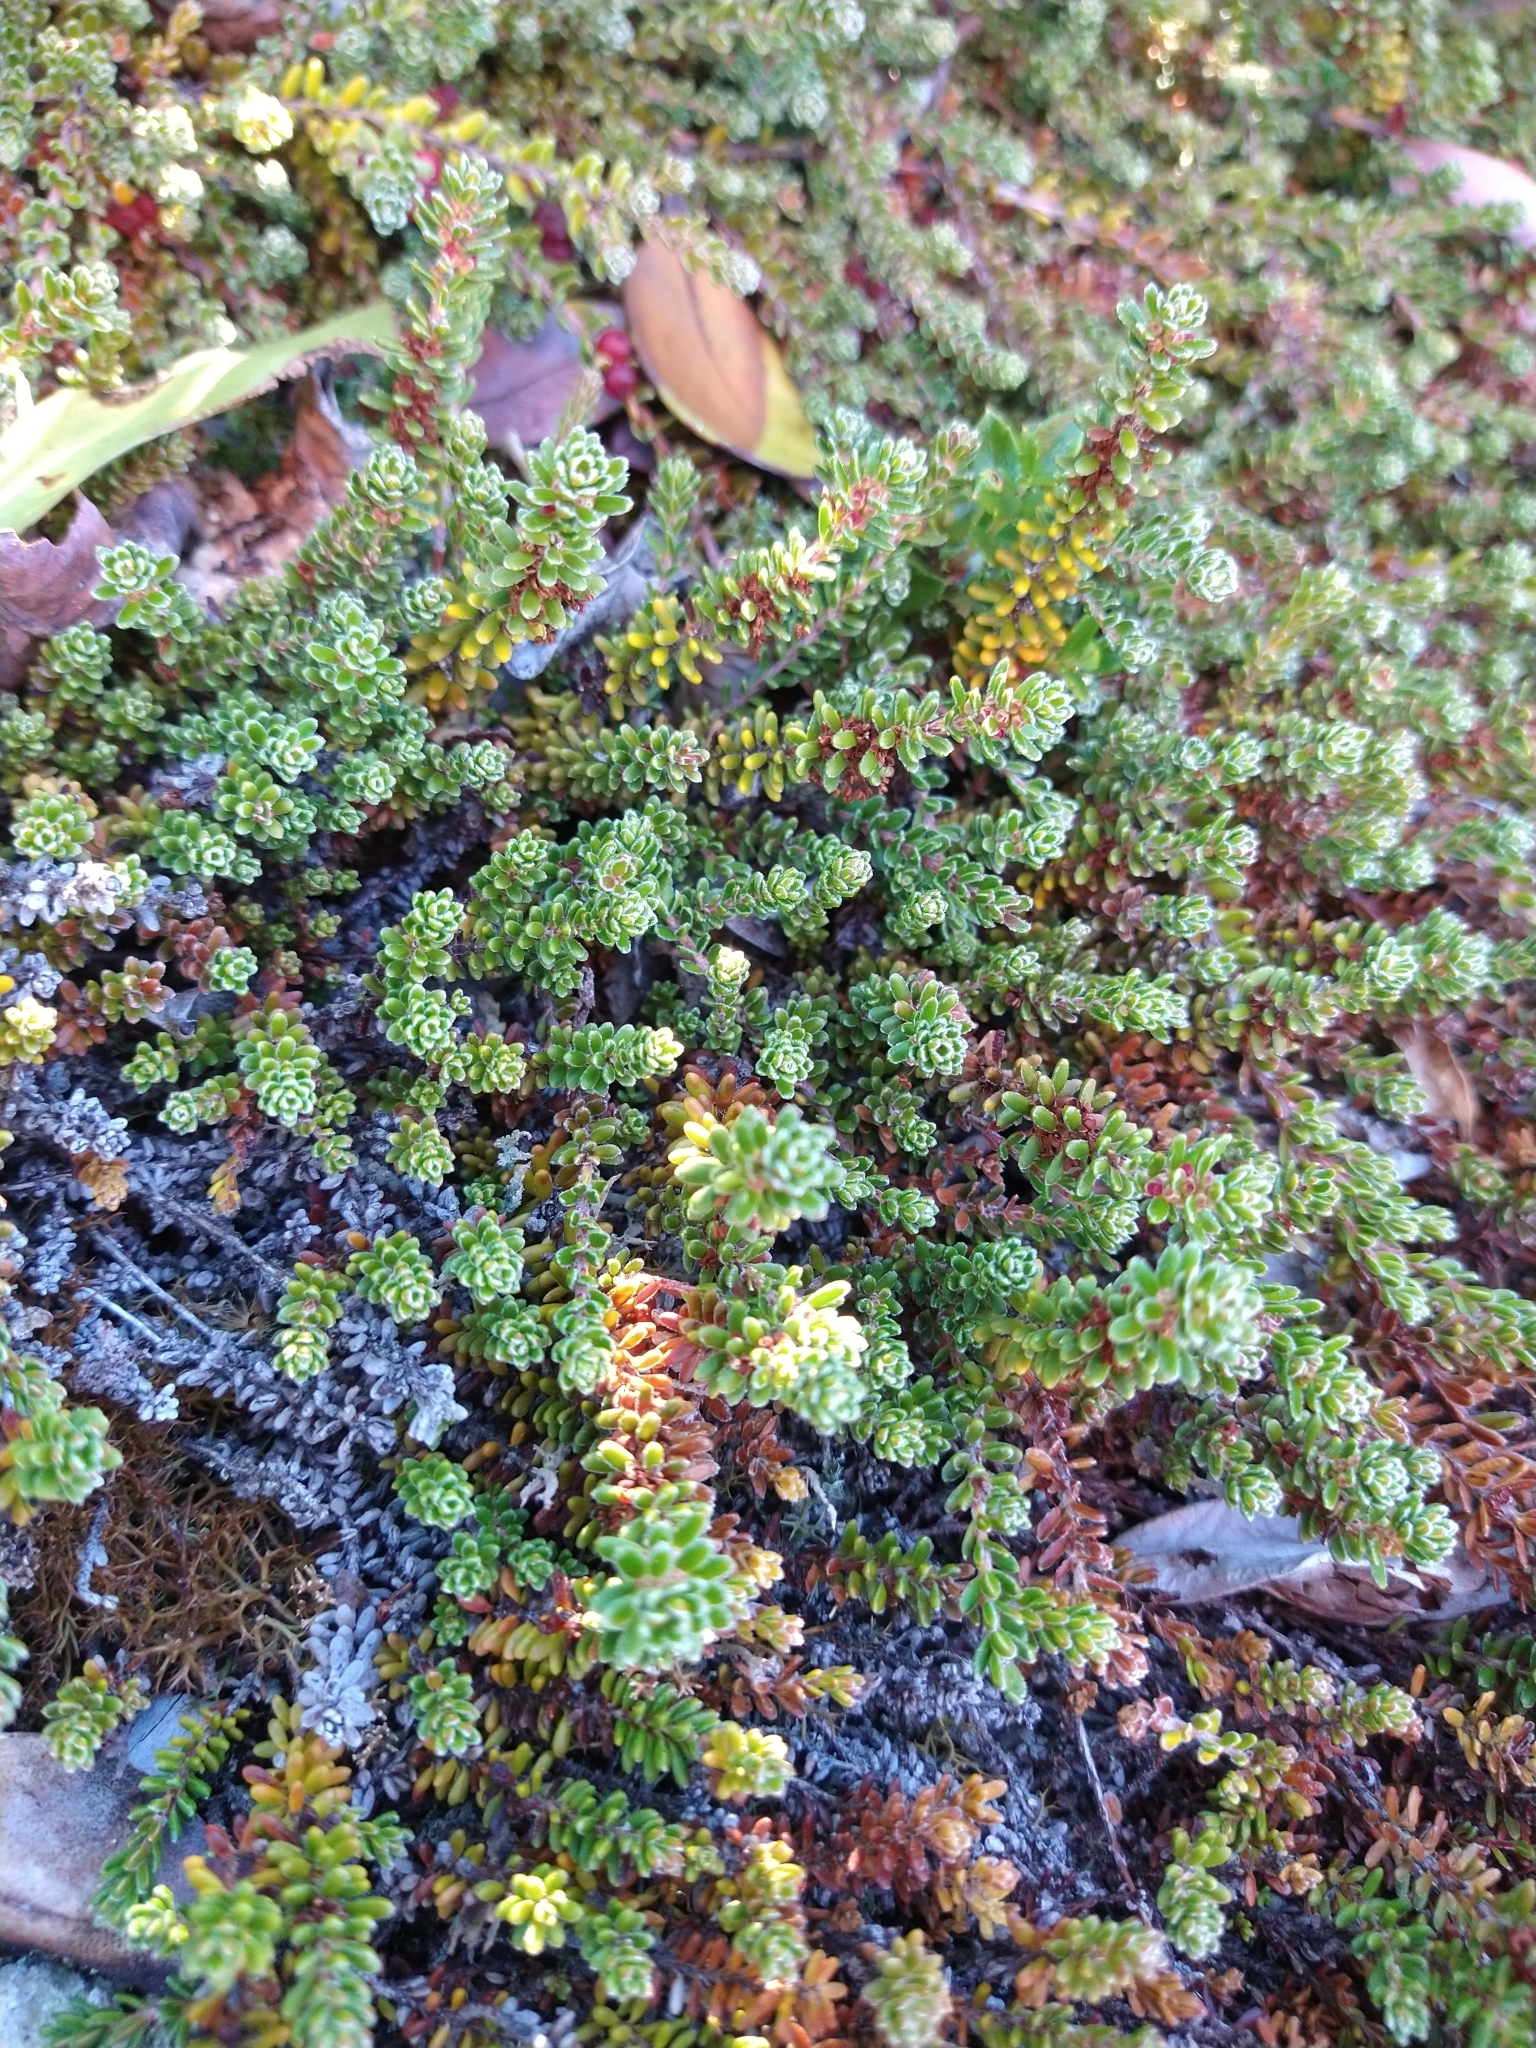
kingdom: Plantae
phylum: Tracheophyta
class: Magnoliopsida
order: Ericales
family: Ericaceae
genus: Empetrum
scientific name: Empetrum rubrum
